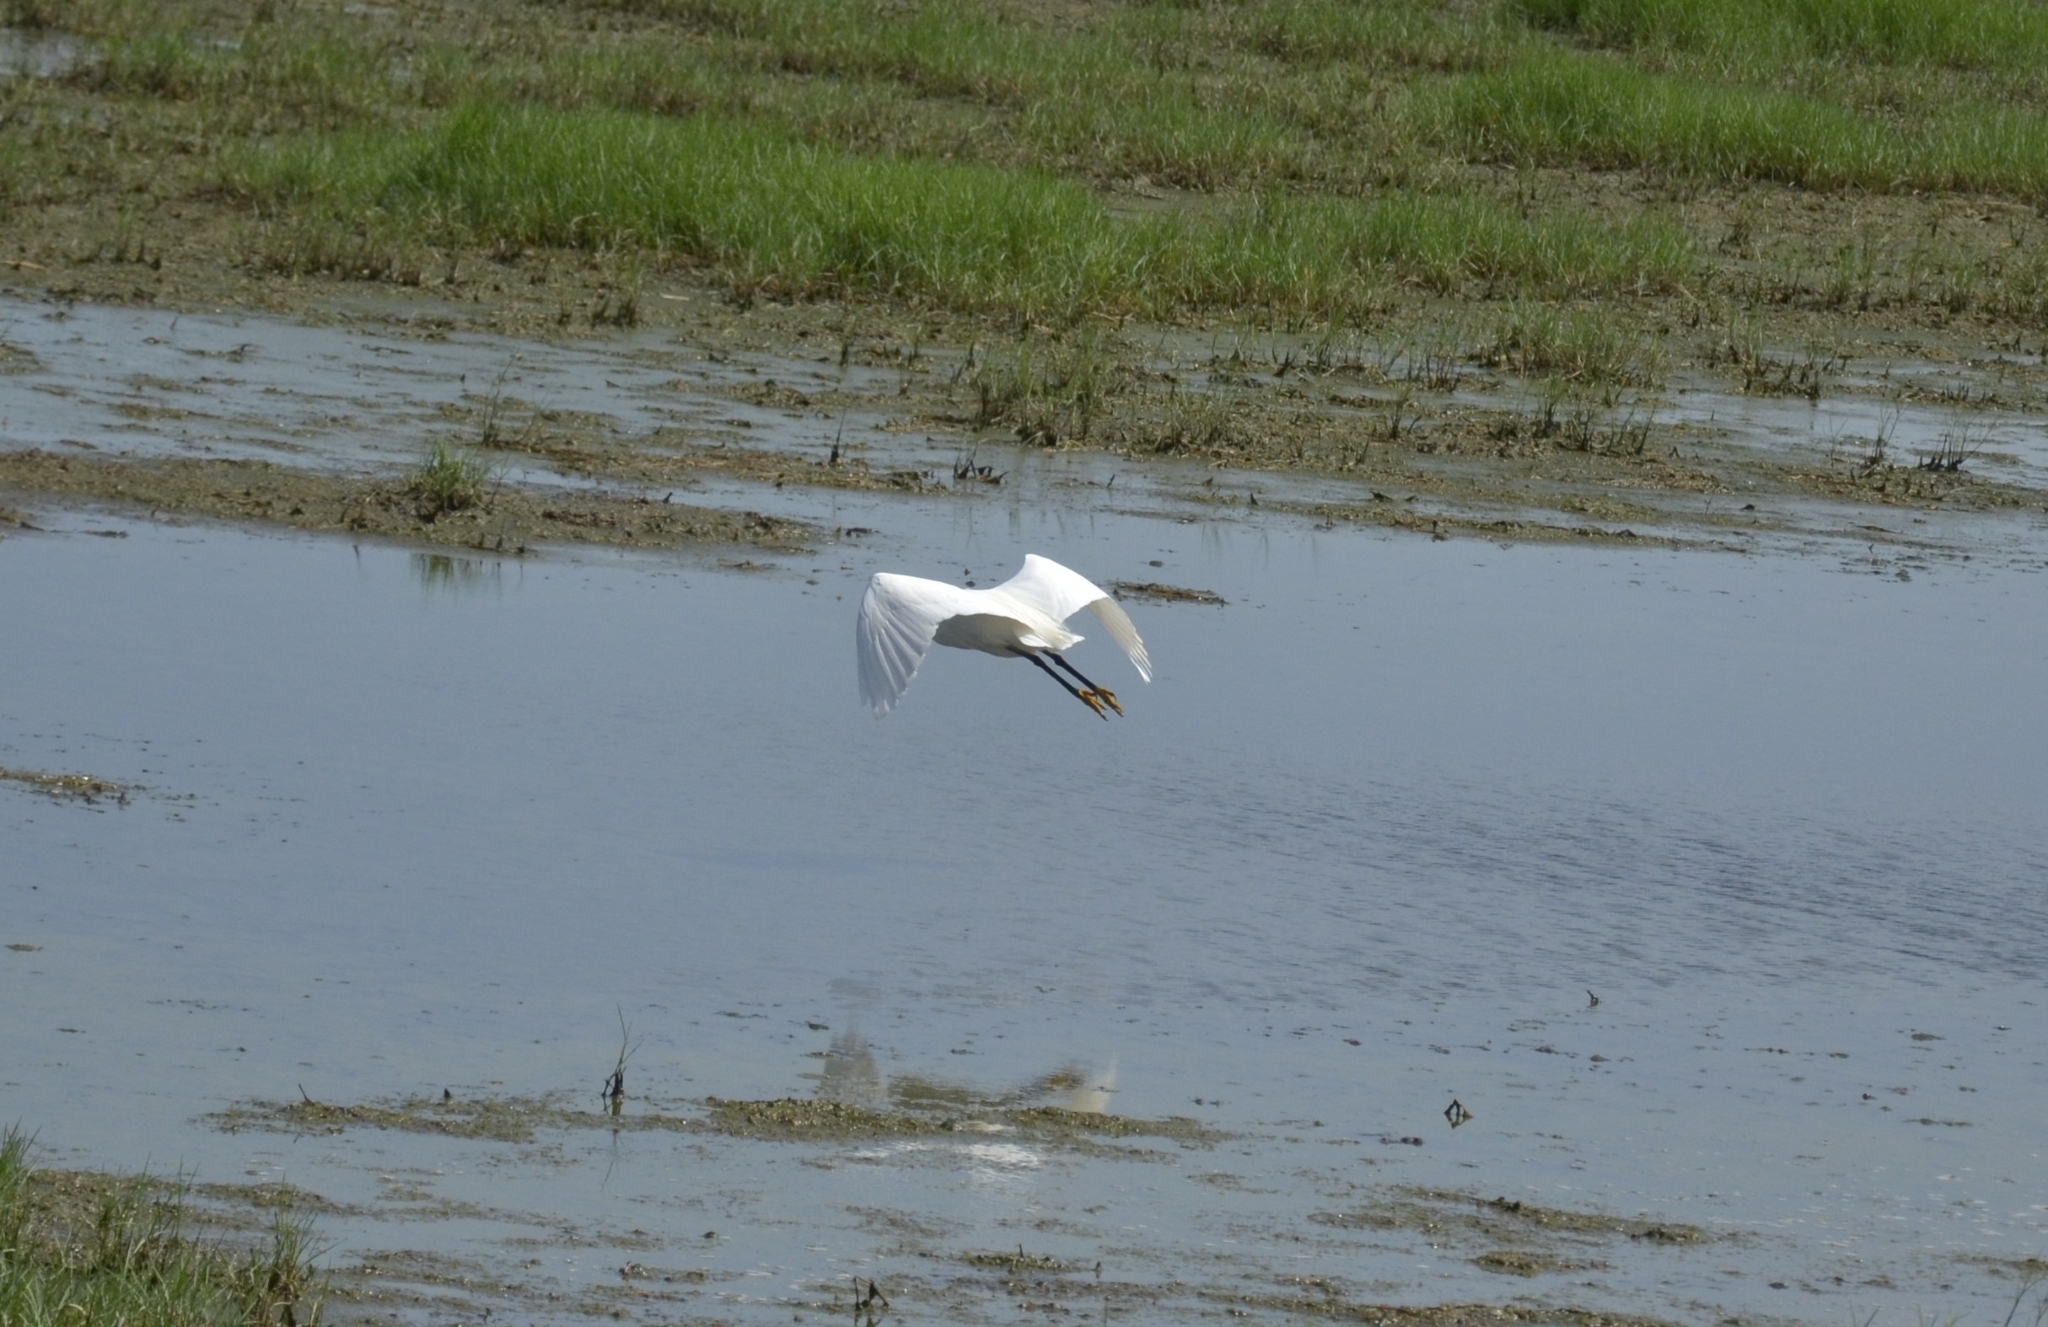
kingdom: Animalia
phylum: Chordata
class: Aves
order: Pelecaniformes
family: Ardeidae
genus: Egretta
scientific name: Egretta garzetta
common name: Little egret
